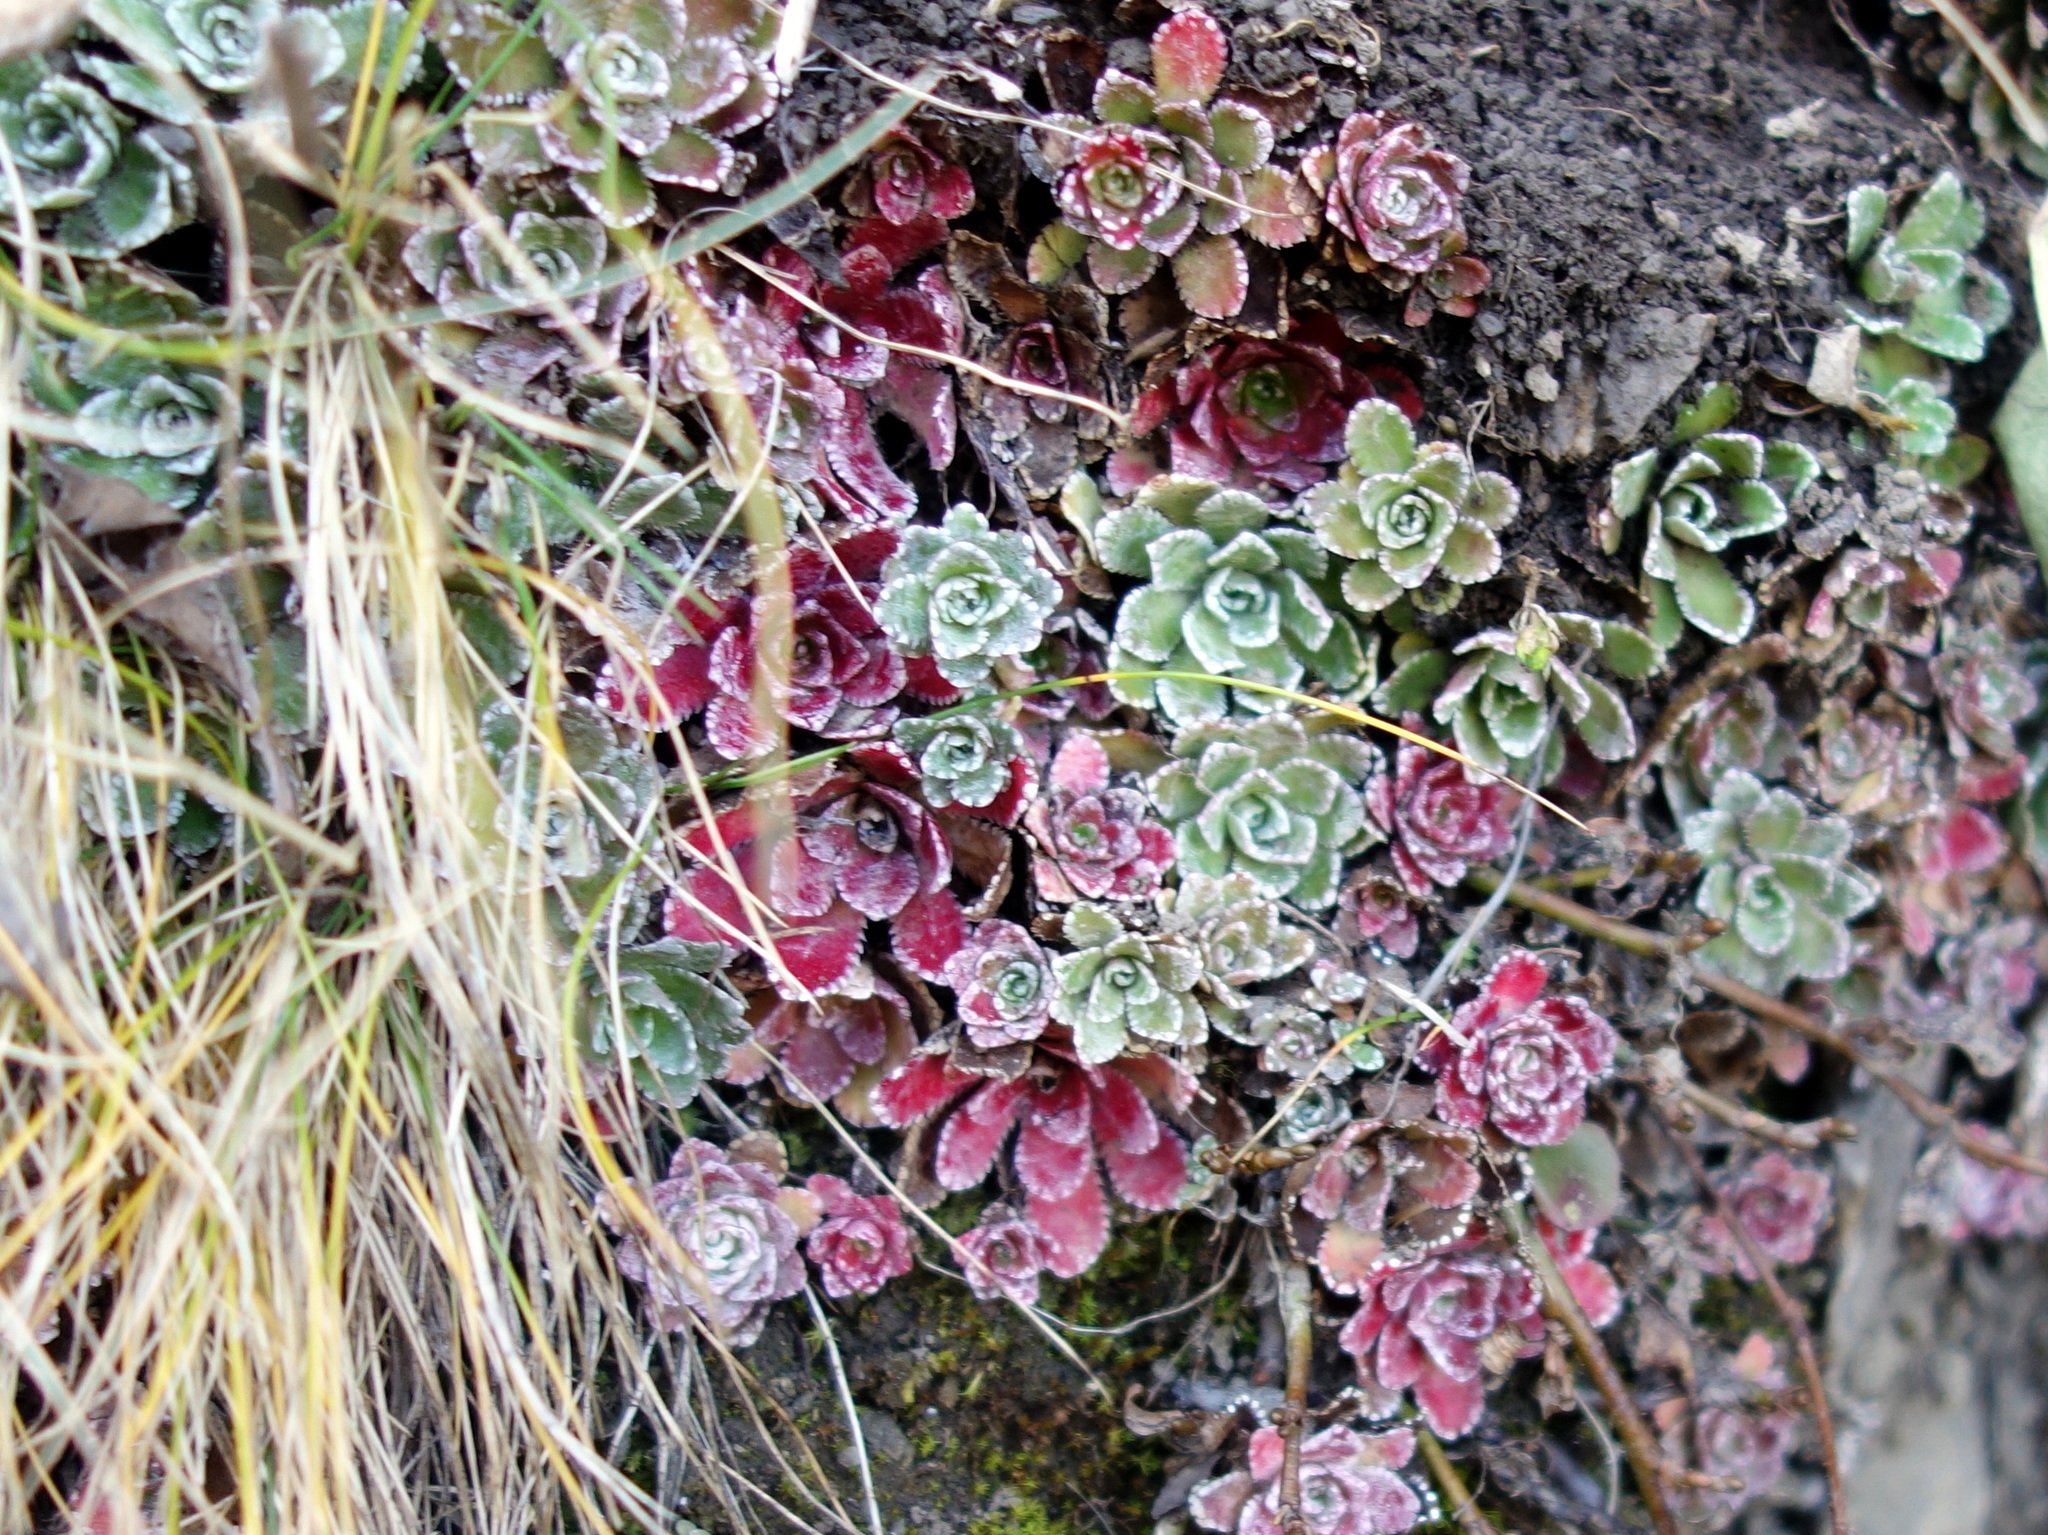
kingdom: Plantae
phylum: Tracheophyta
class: Magnoliopsida
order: Saxifragales
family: Saxifragaceae
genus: Saxifraga
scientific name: Saxifraga paniculata
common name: Livelong saxifrage
